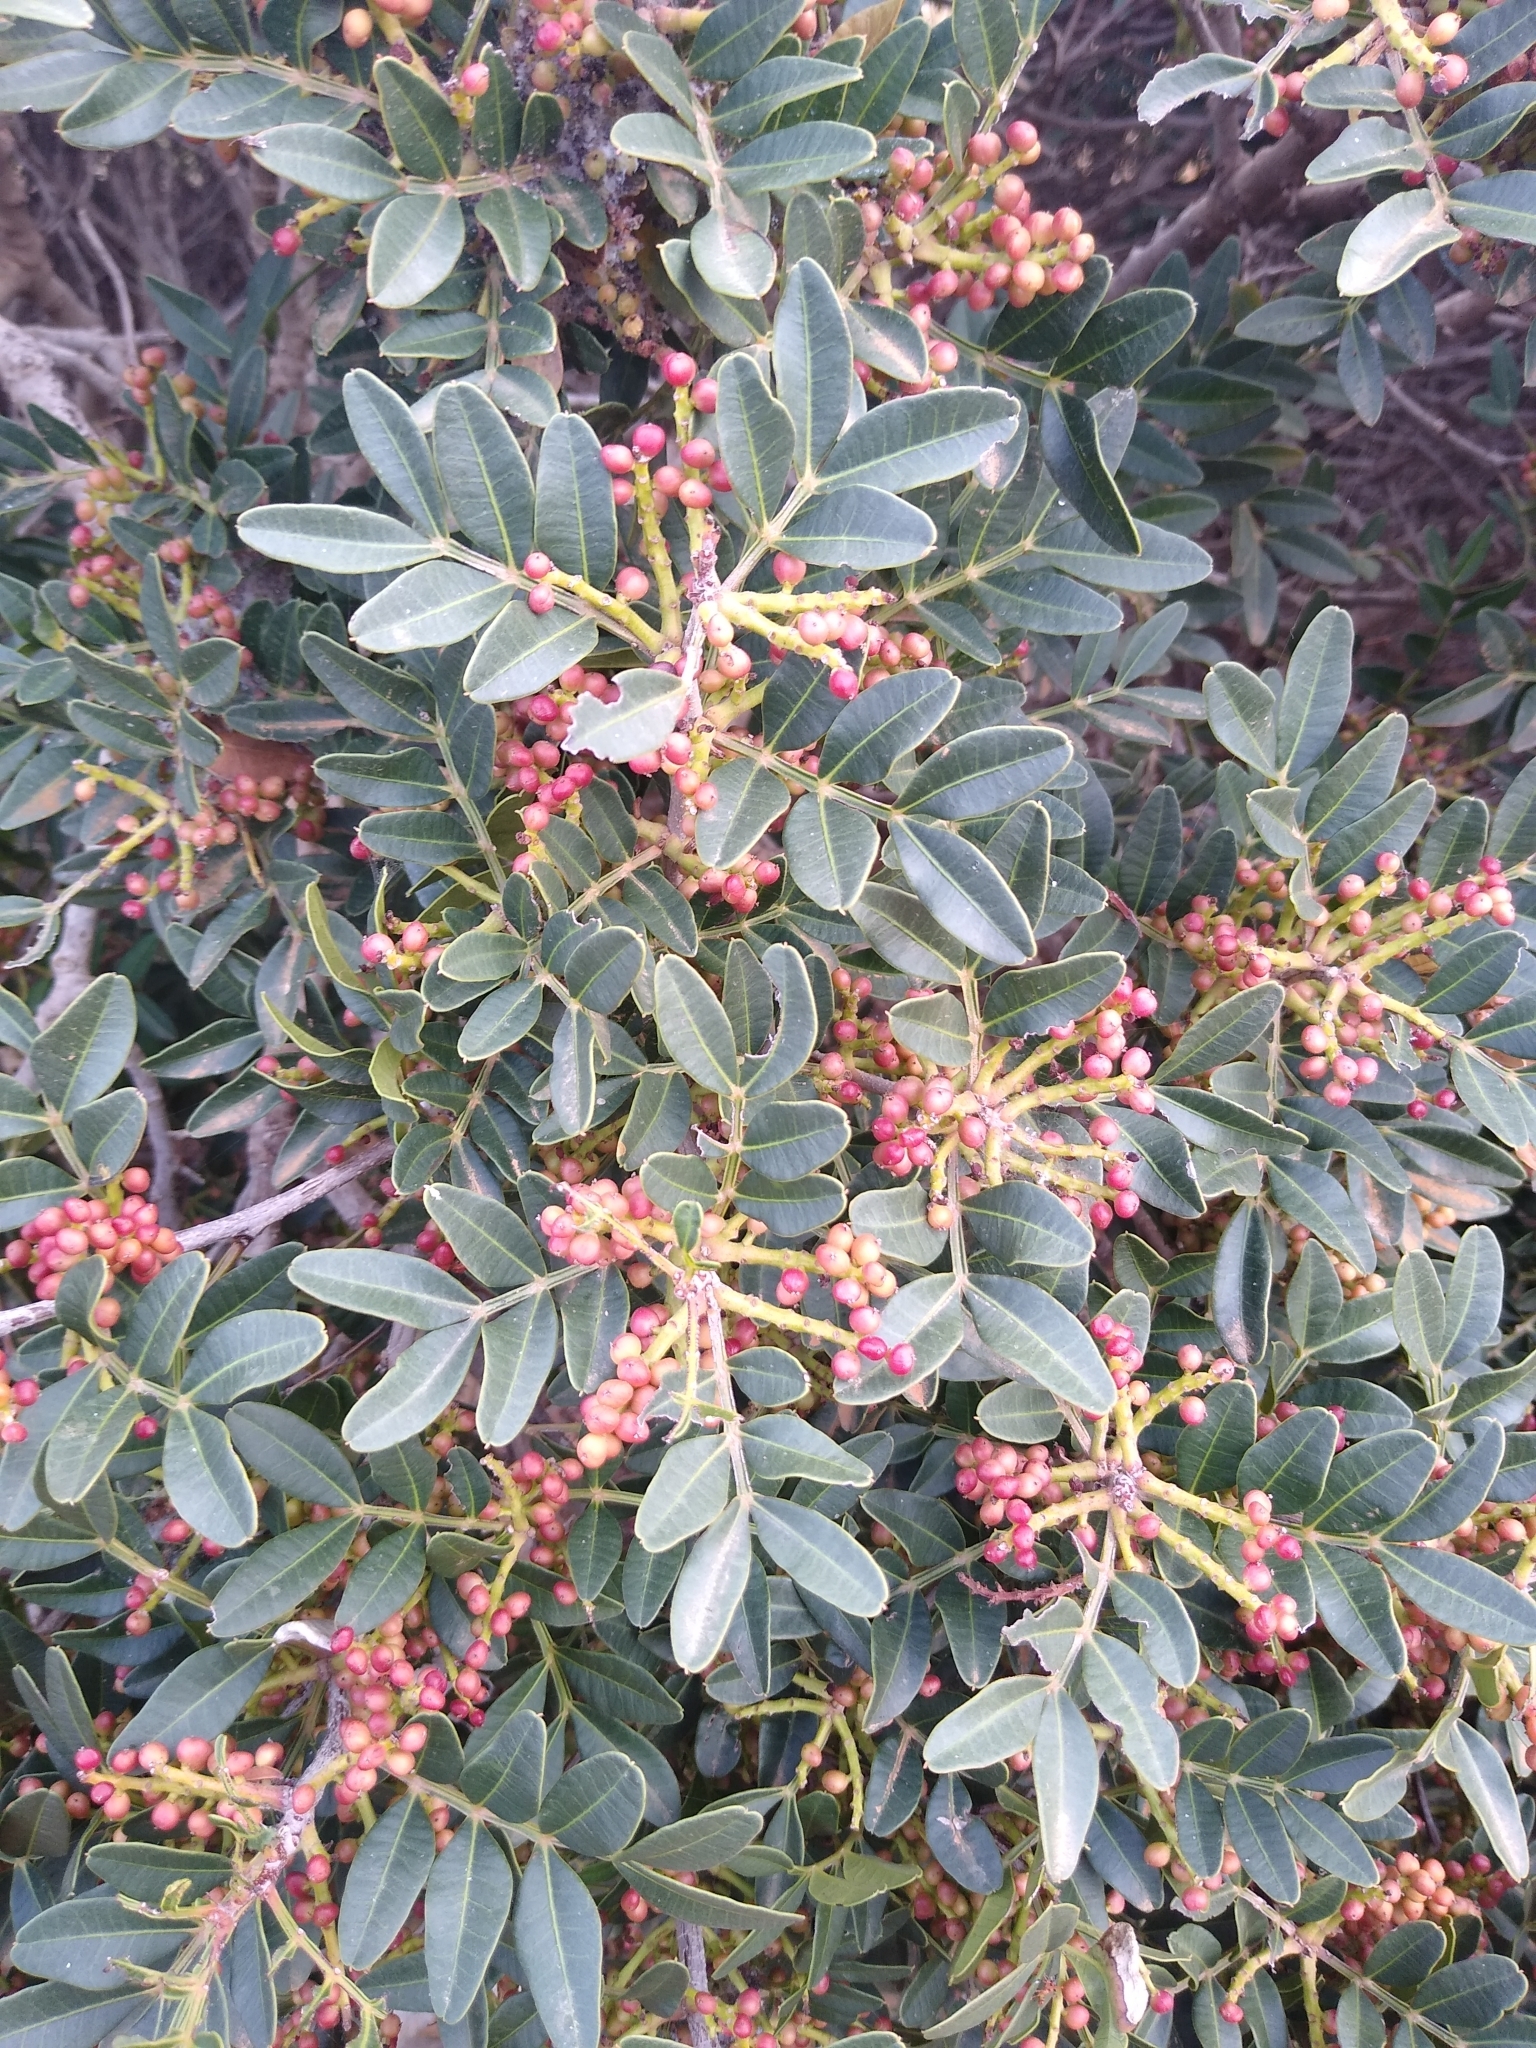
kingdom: Plantae
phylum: Tracheophyta
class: Magnoliopsida
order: Sapindales
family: Anacardiaceae
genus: Pistacia
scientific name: Pistacia lentiscus
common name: Lentisk
